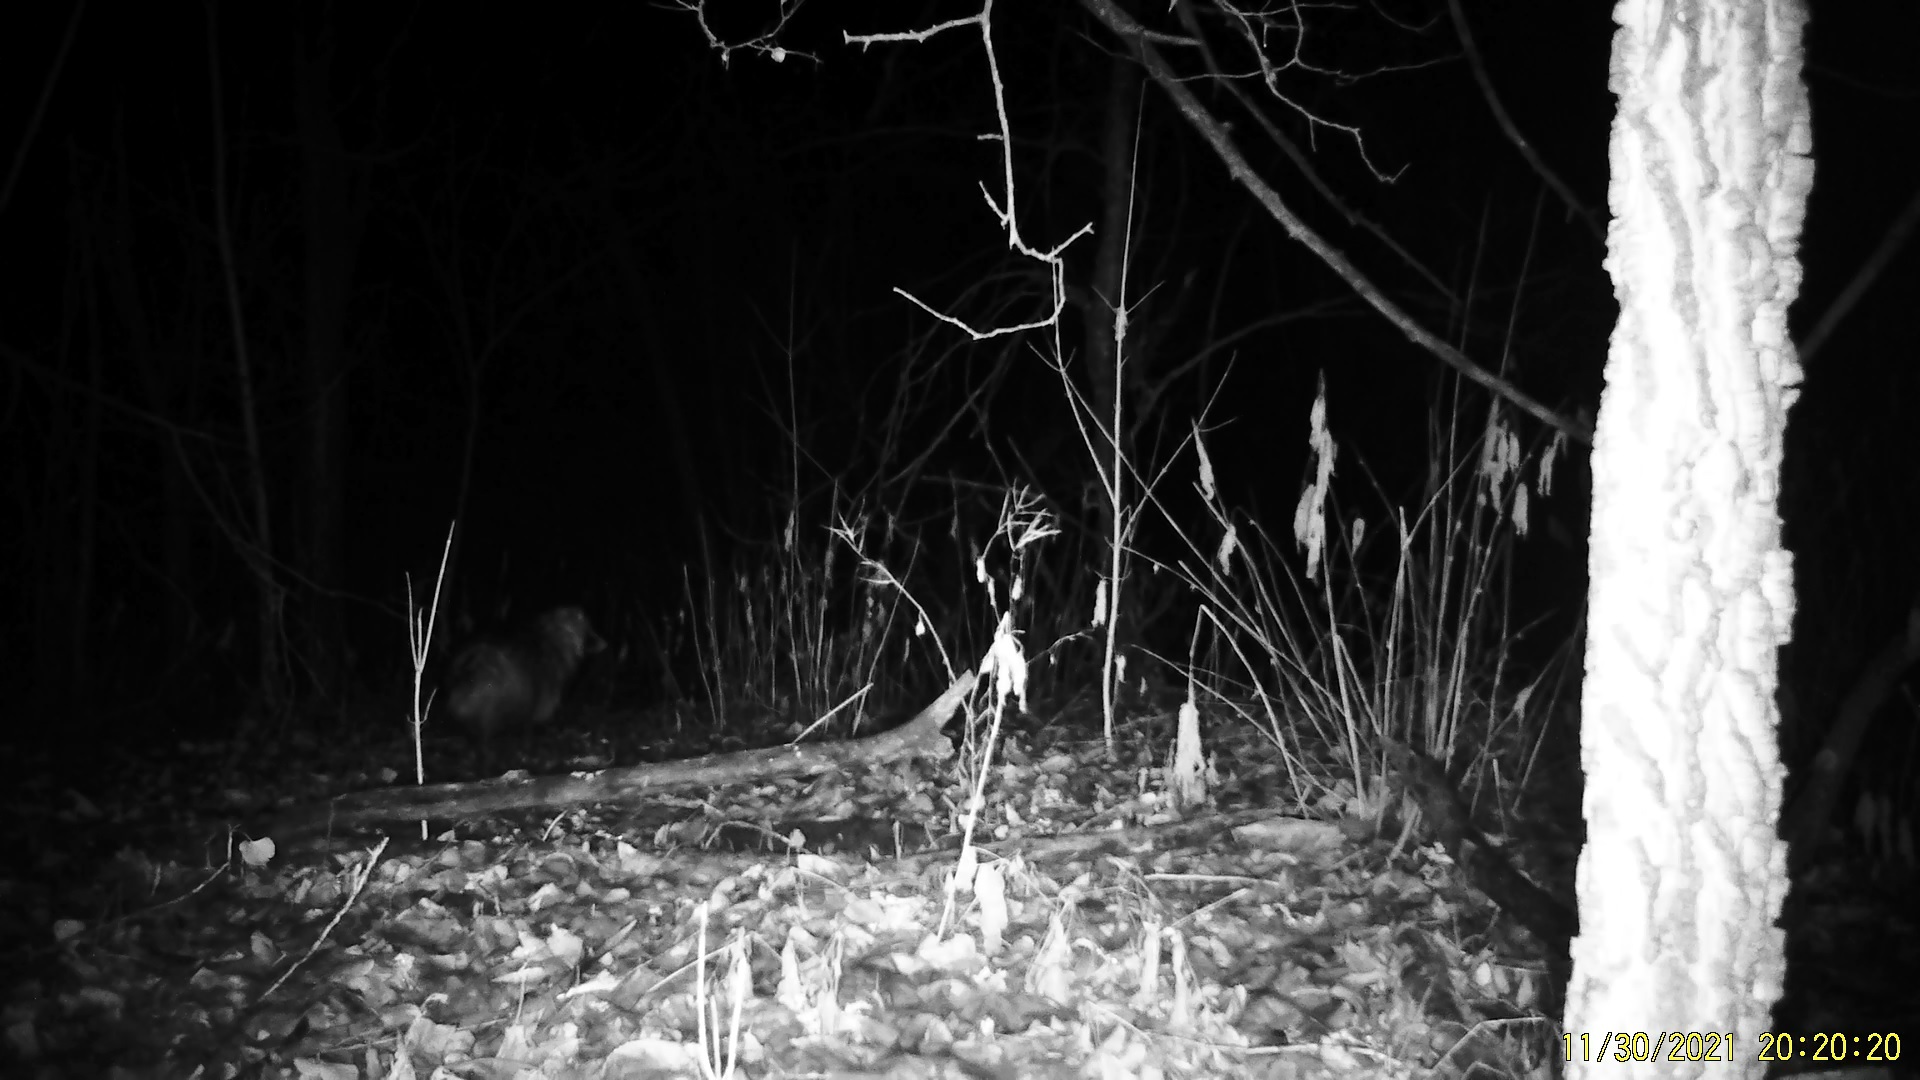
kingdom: Animalia
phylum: Chordata
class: Mammalia
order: Carnivora
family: Canidae
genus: Nyctereutes
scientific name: Nyctereutes procyonoides
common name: Raccoon dog
